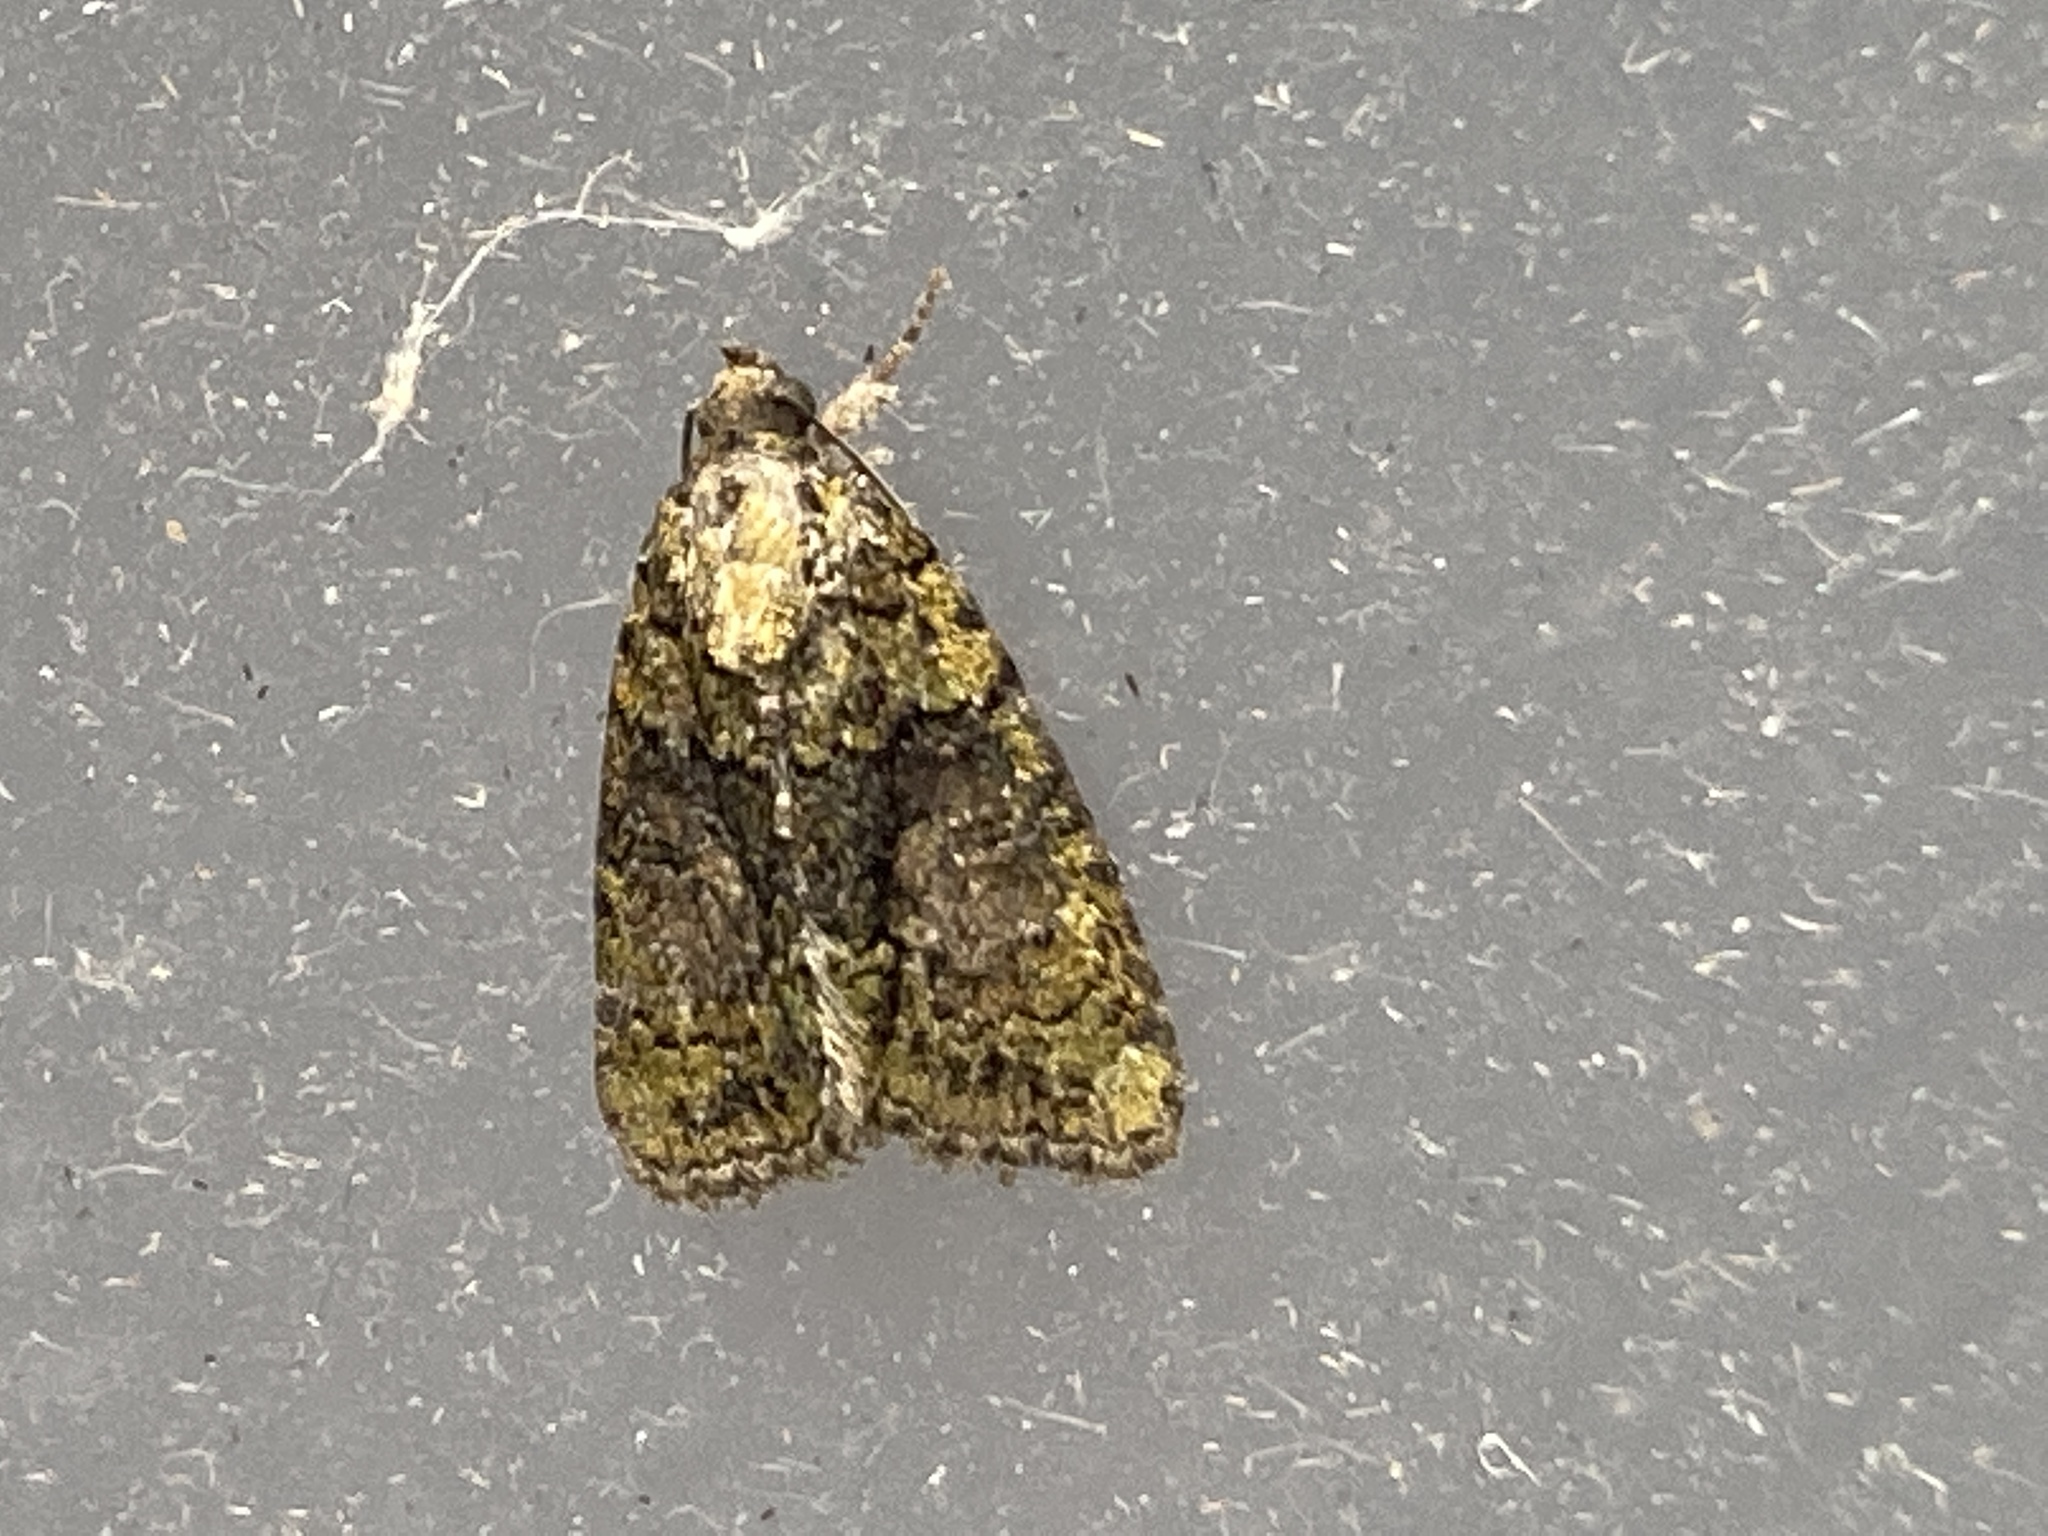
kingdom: Animalia
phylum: Arthropoda
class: Insecta
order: Lepidoptera
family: Noctuidae
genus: Cryphia
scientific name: Cryphia algae
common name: Tree-lichen beauty
